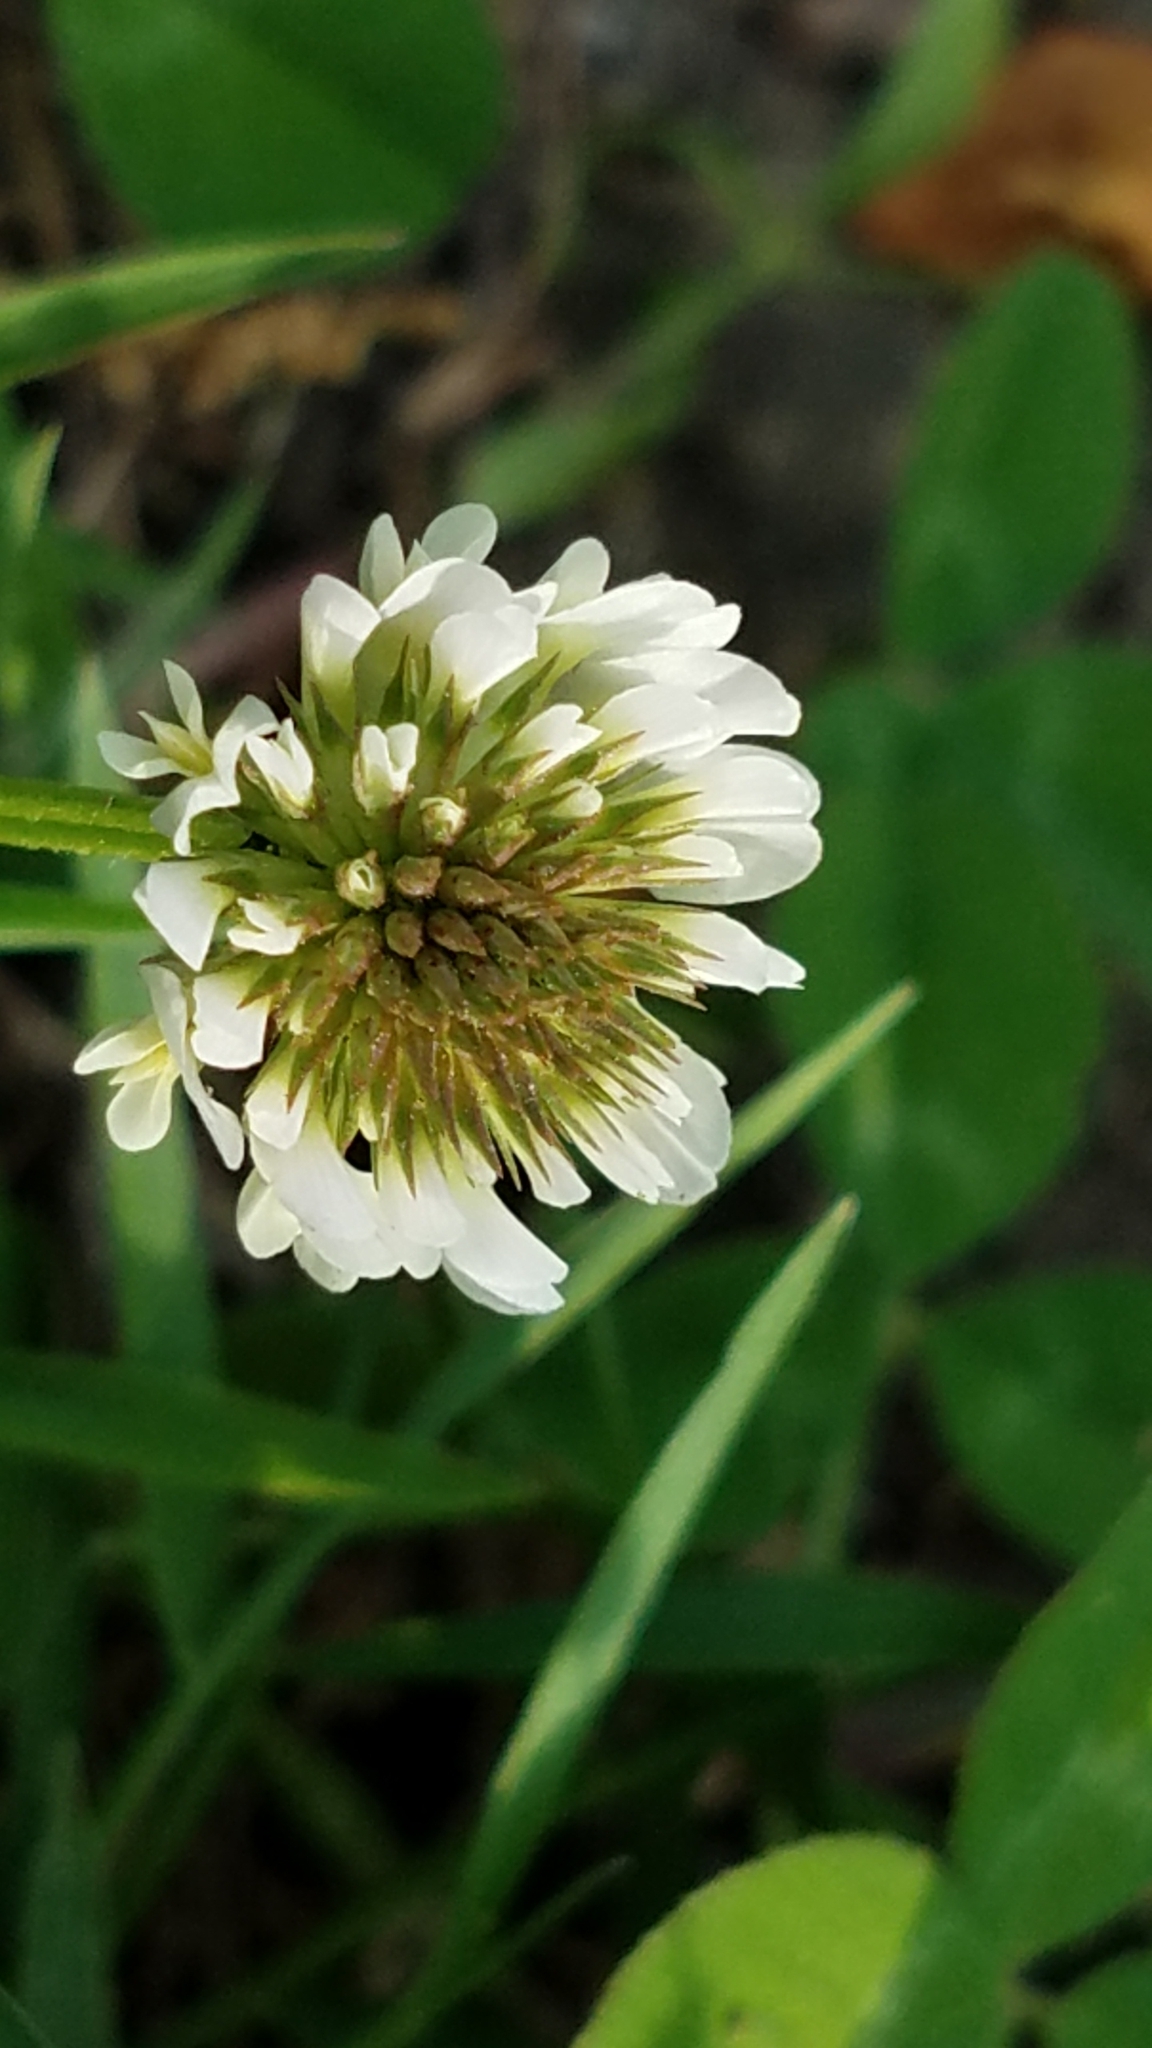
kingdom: Plantae
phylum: Tracheophyta
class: Magnoliopsida
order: Fabales
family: Fabaceae
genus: Trifolium
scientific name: Trifolium repens
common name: White clover
